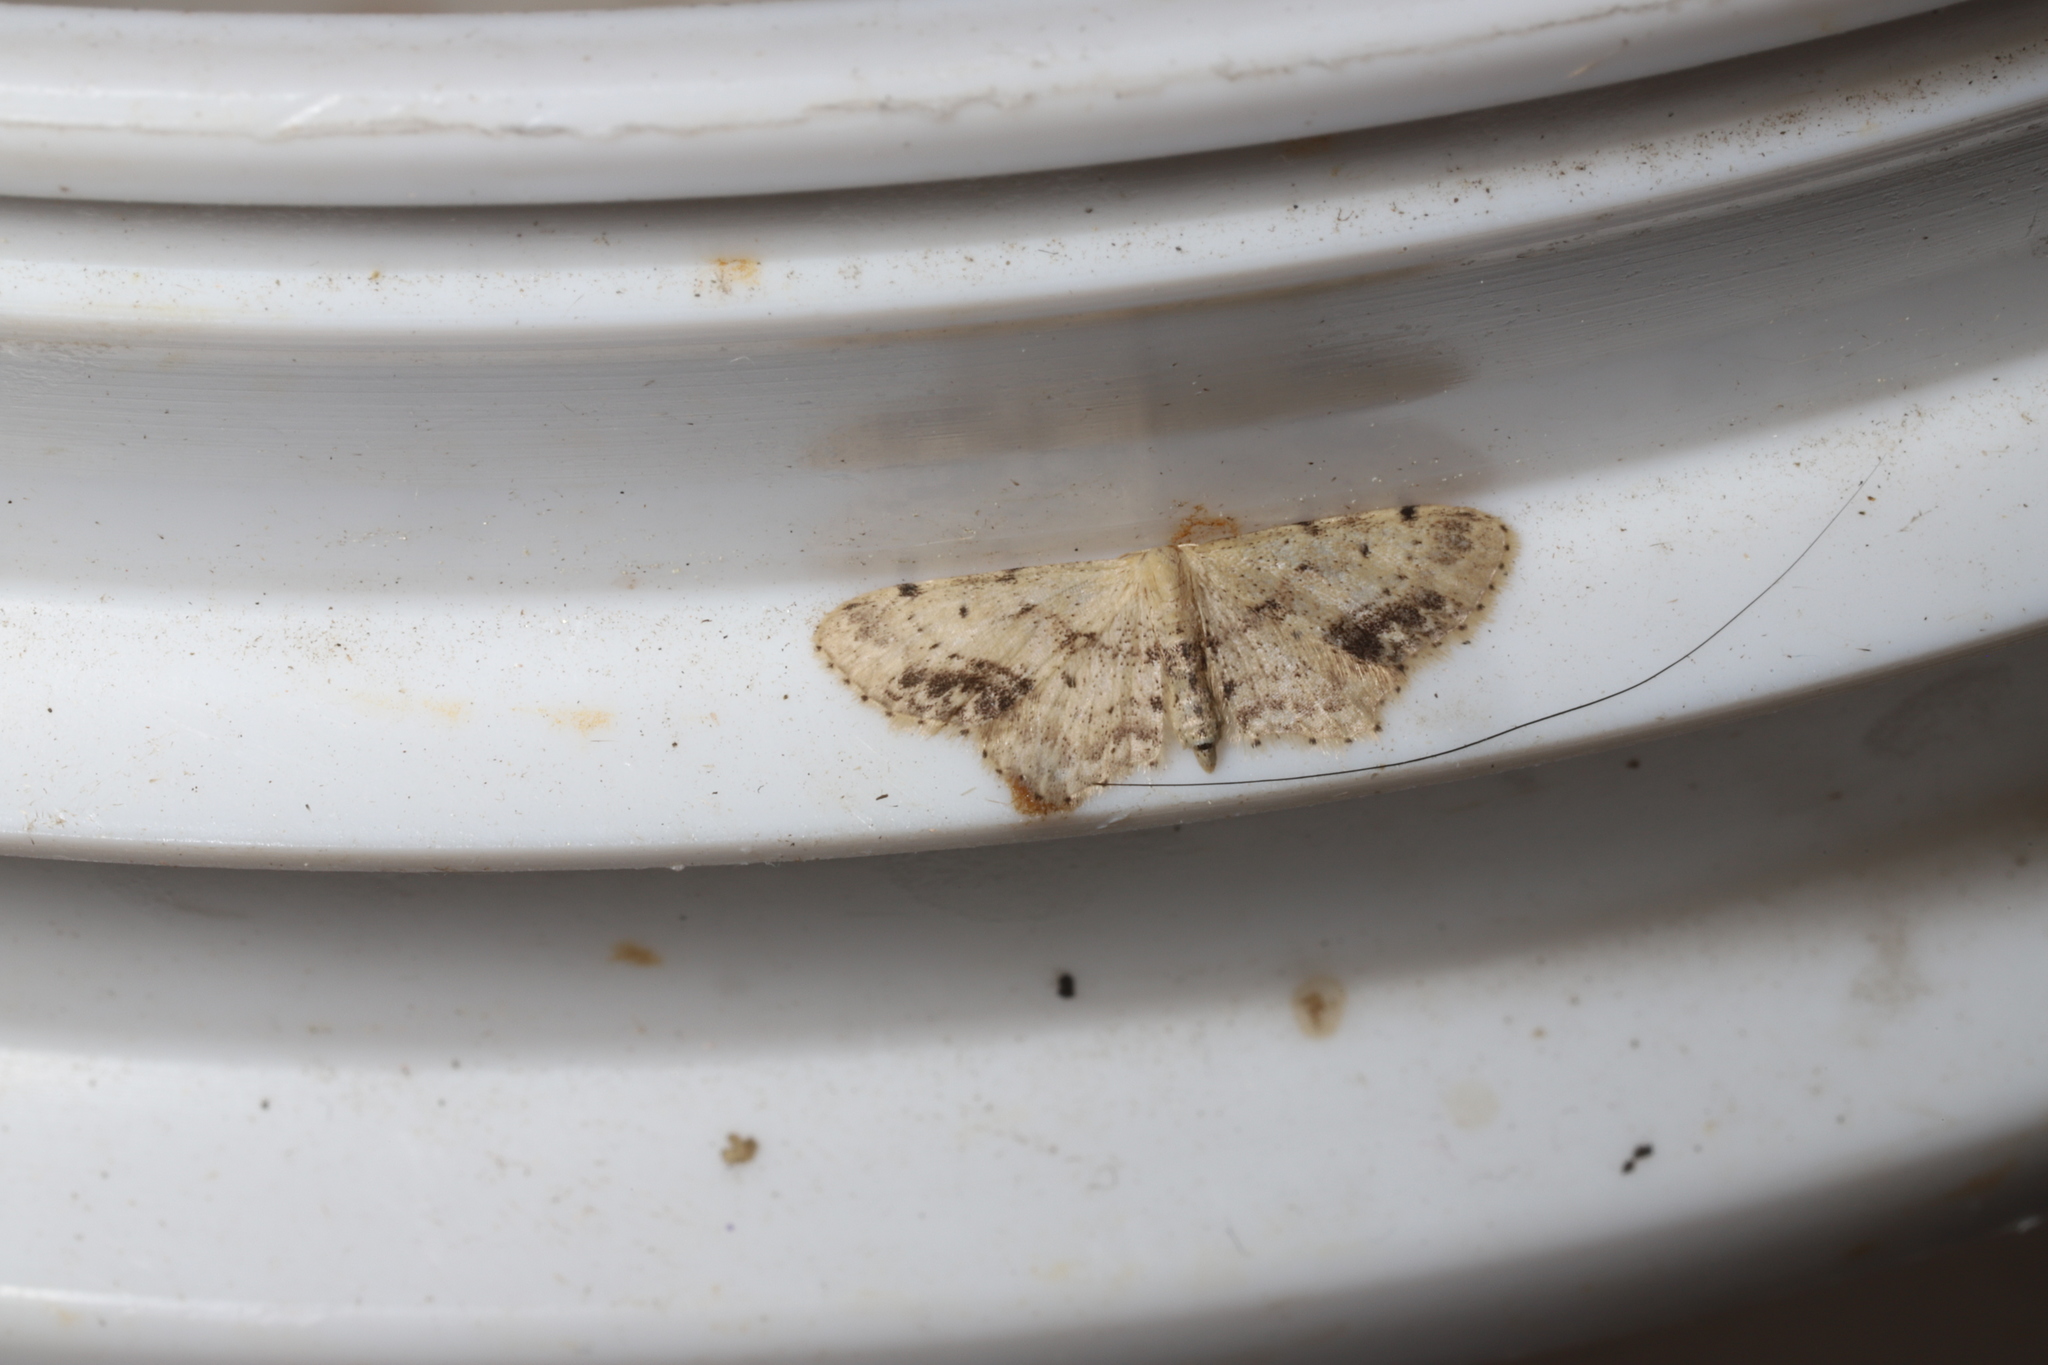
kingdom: Animalia
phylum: Arthropoda
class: Insecta
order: Lepidoptera
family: Geometridae
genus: Idaea
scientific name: Idaea dimidiata
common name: Single-dotted wave
